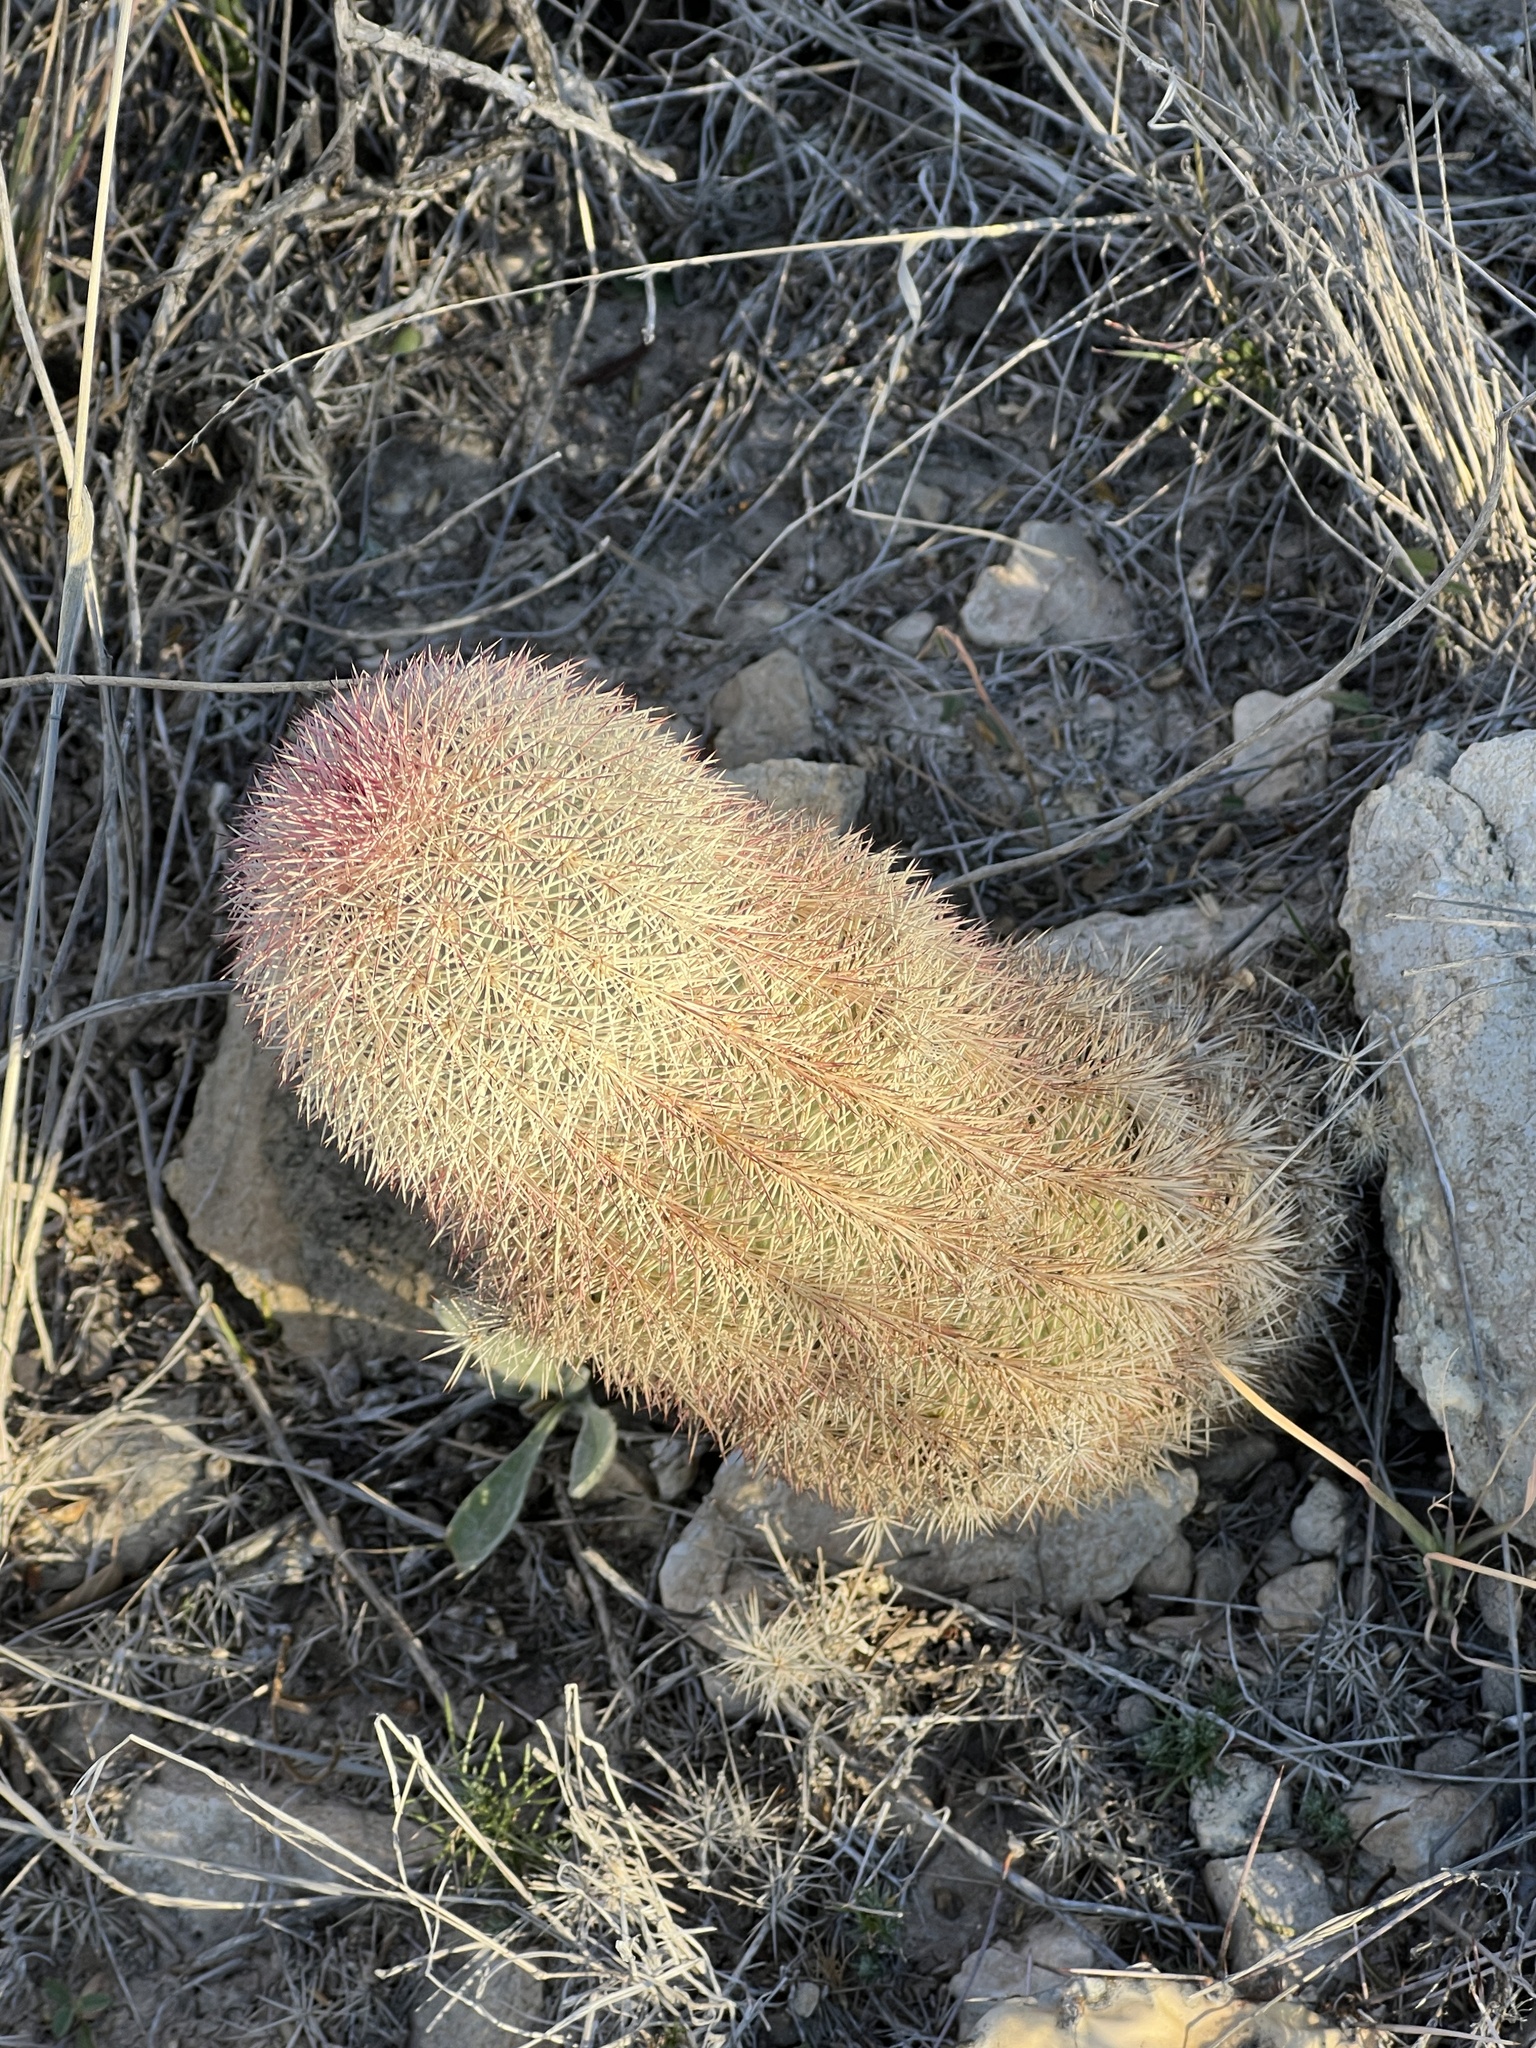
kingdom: Plantae
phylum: Tracheophyta
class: Magnoliopsida
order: Caryophyllales
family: Cactaceae
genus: Echinocereus
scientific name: Echinocereus dasyacanthus
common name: Spiny hedgehog cactus
